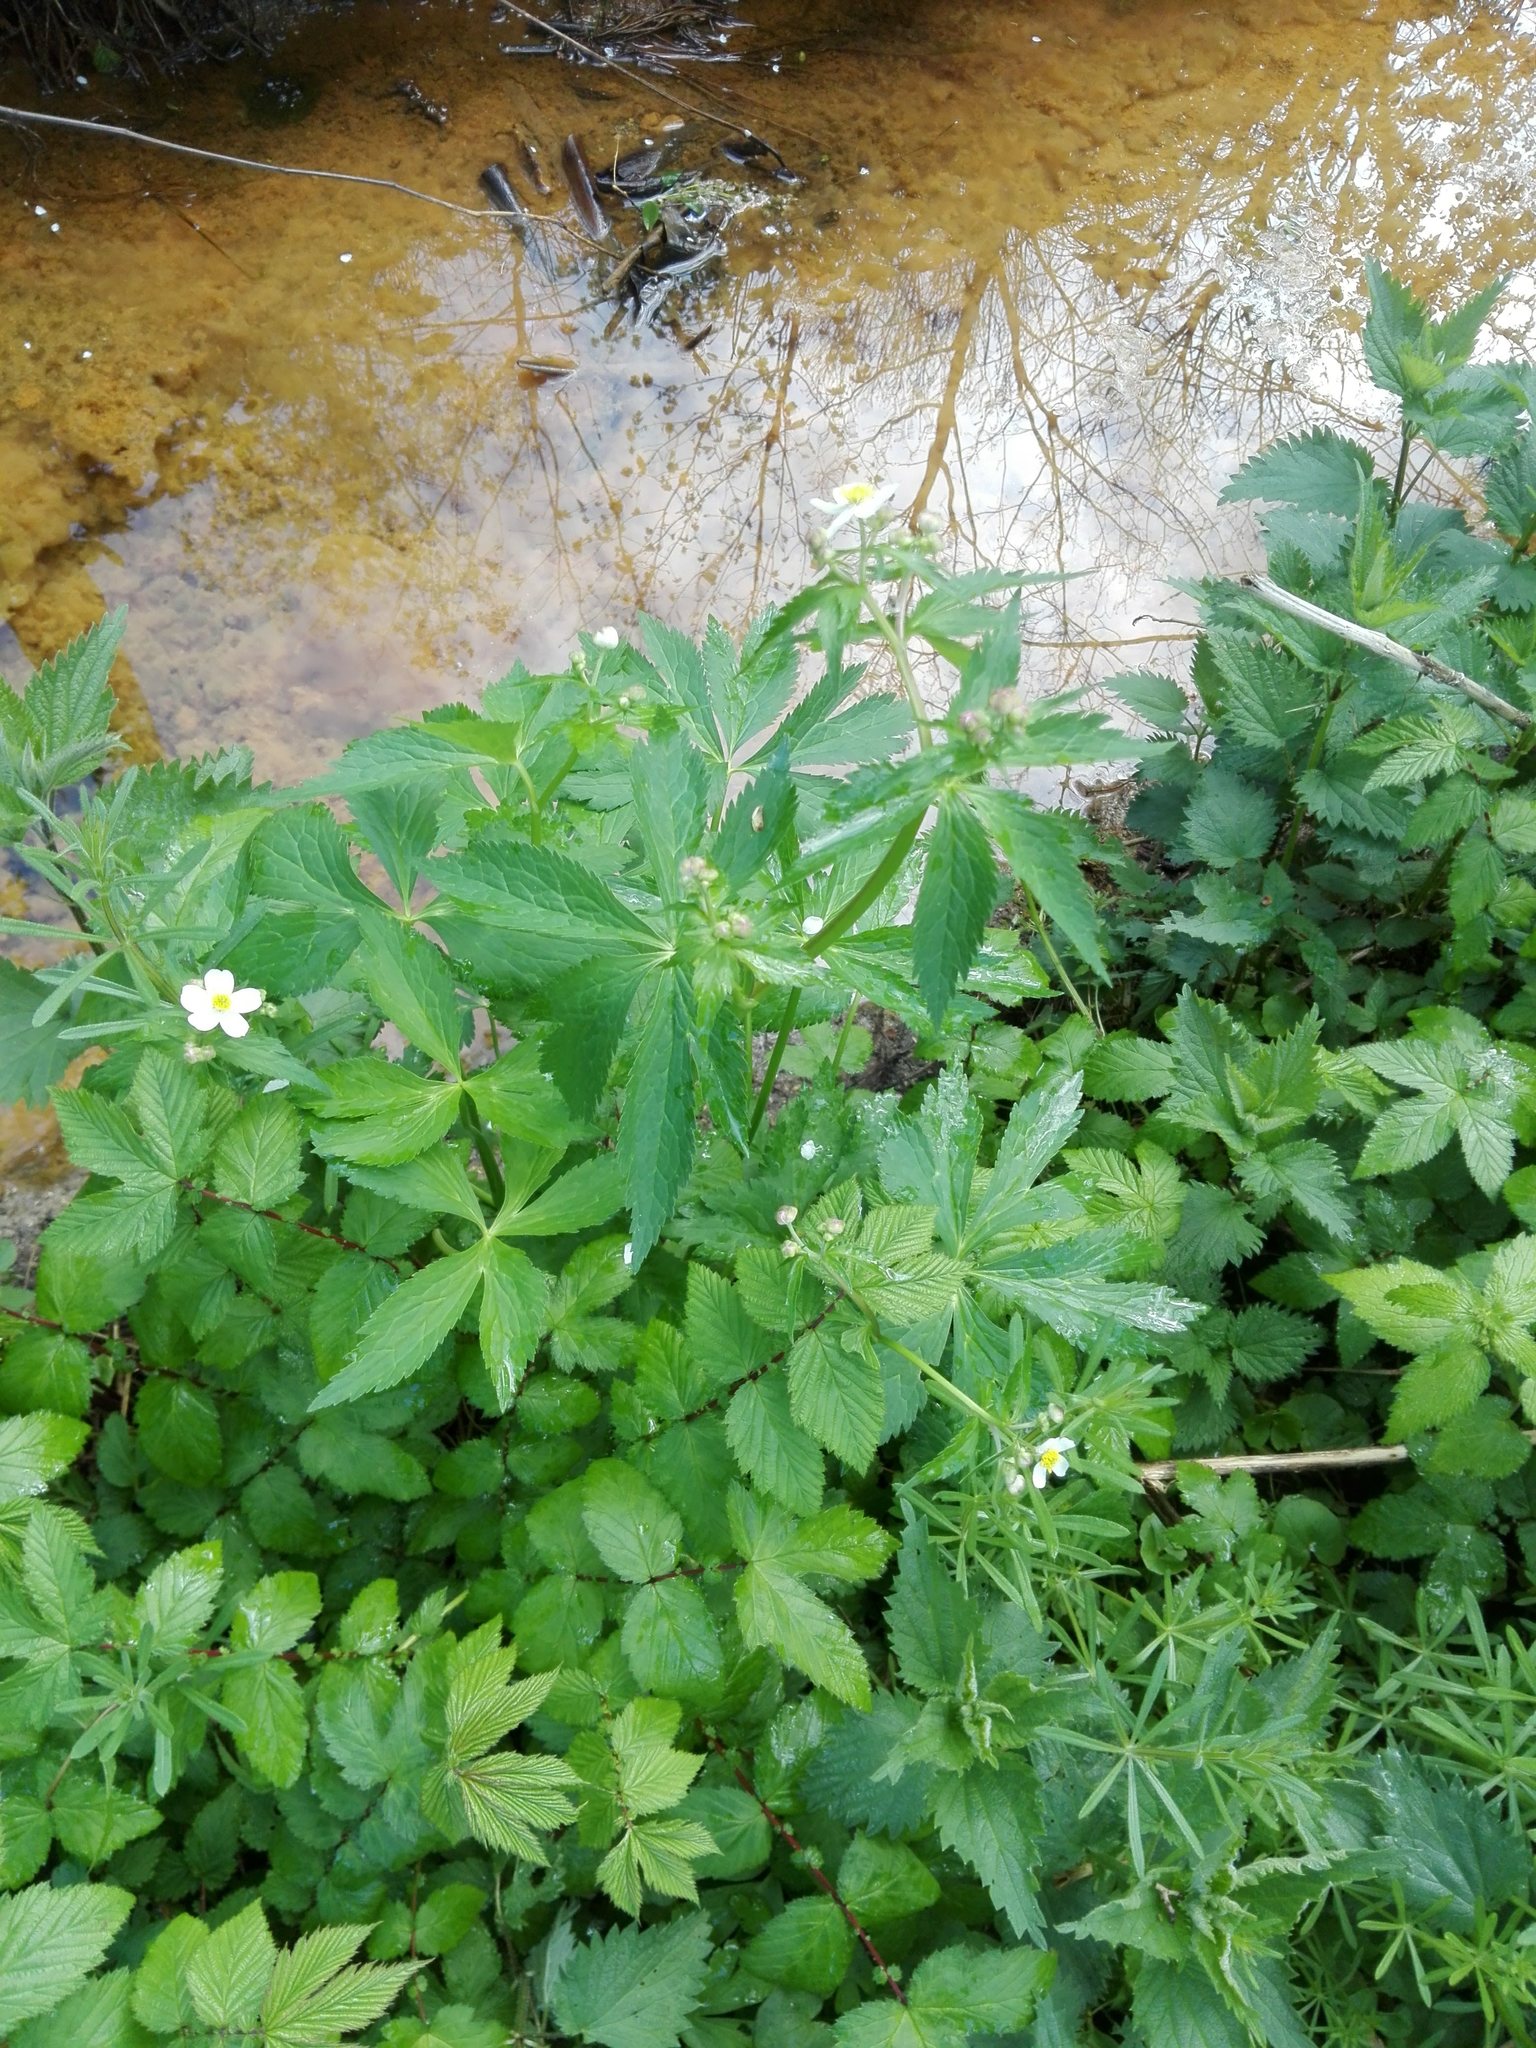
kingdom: Plantae
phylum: Tracheophyta
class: Magnoliopsida
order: Ranunculales
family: Ranunculaceae
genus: Ranunculus
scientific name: Ranunculus aconitifolius
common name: Aconite-leaved buttercup
